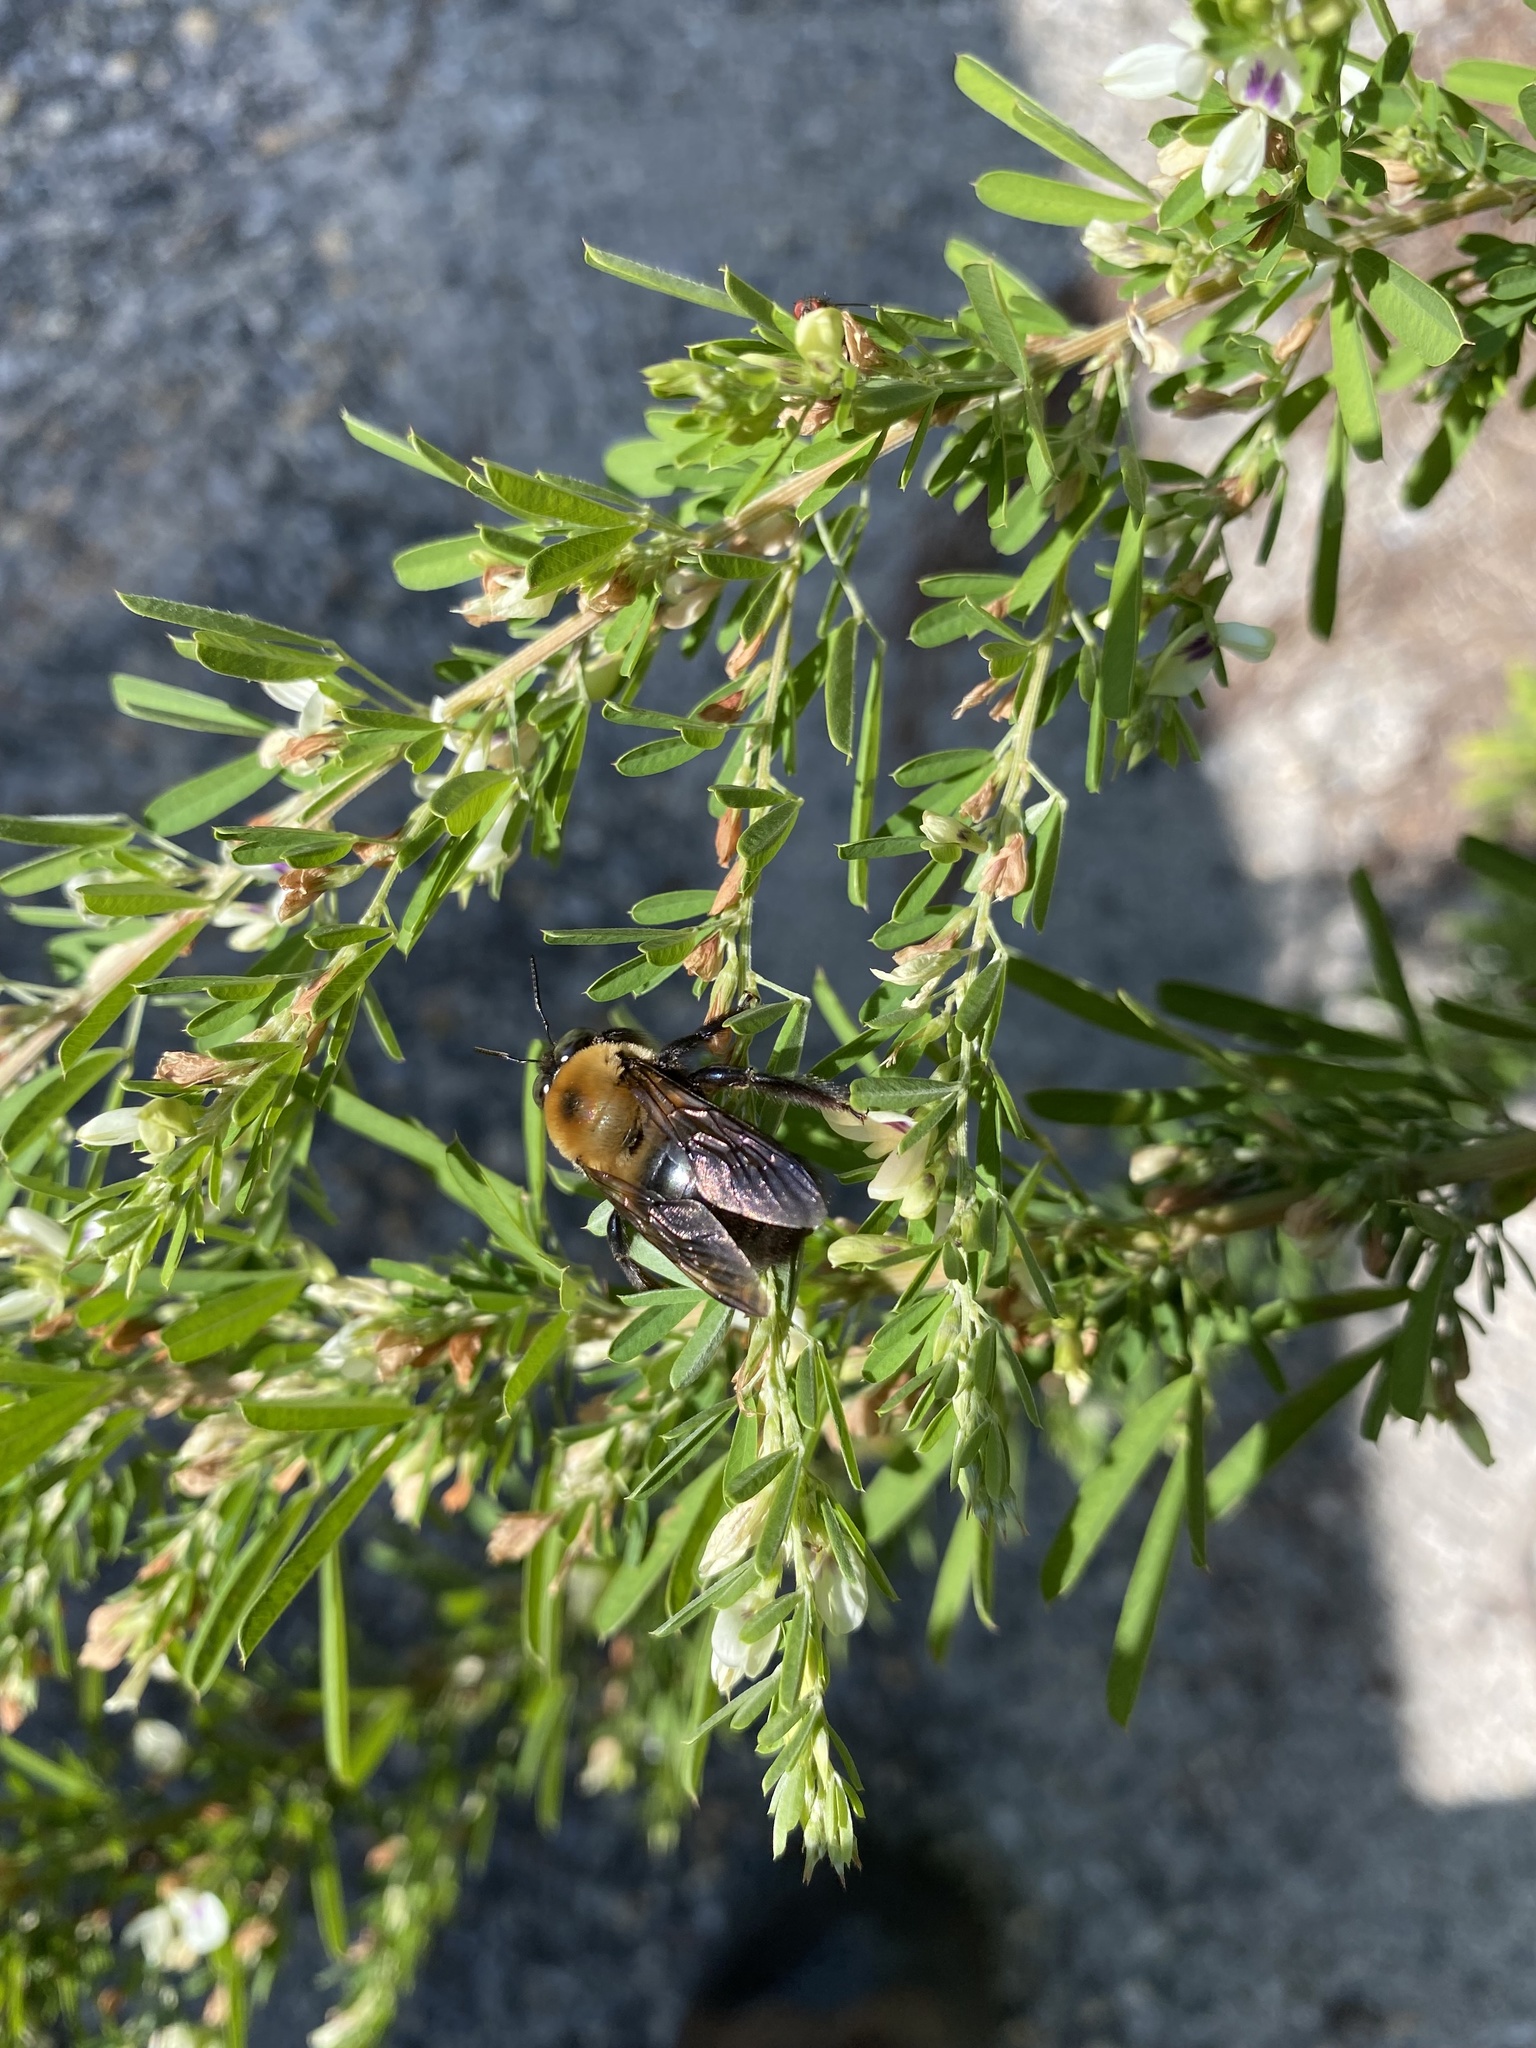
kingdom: Plantae
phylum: Tracheophyta
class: Magnoliopsida
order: Fabales
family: Fabaceae
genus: Lespedeza
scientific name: Lespedeza cuneata
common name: Chinese bush-clover
